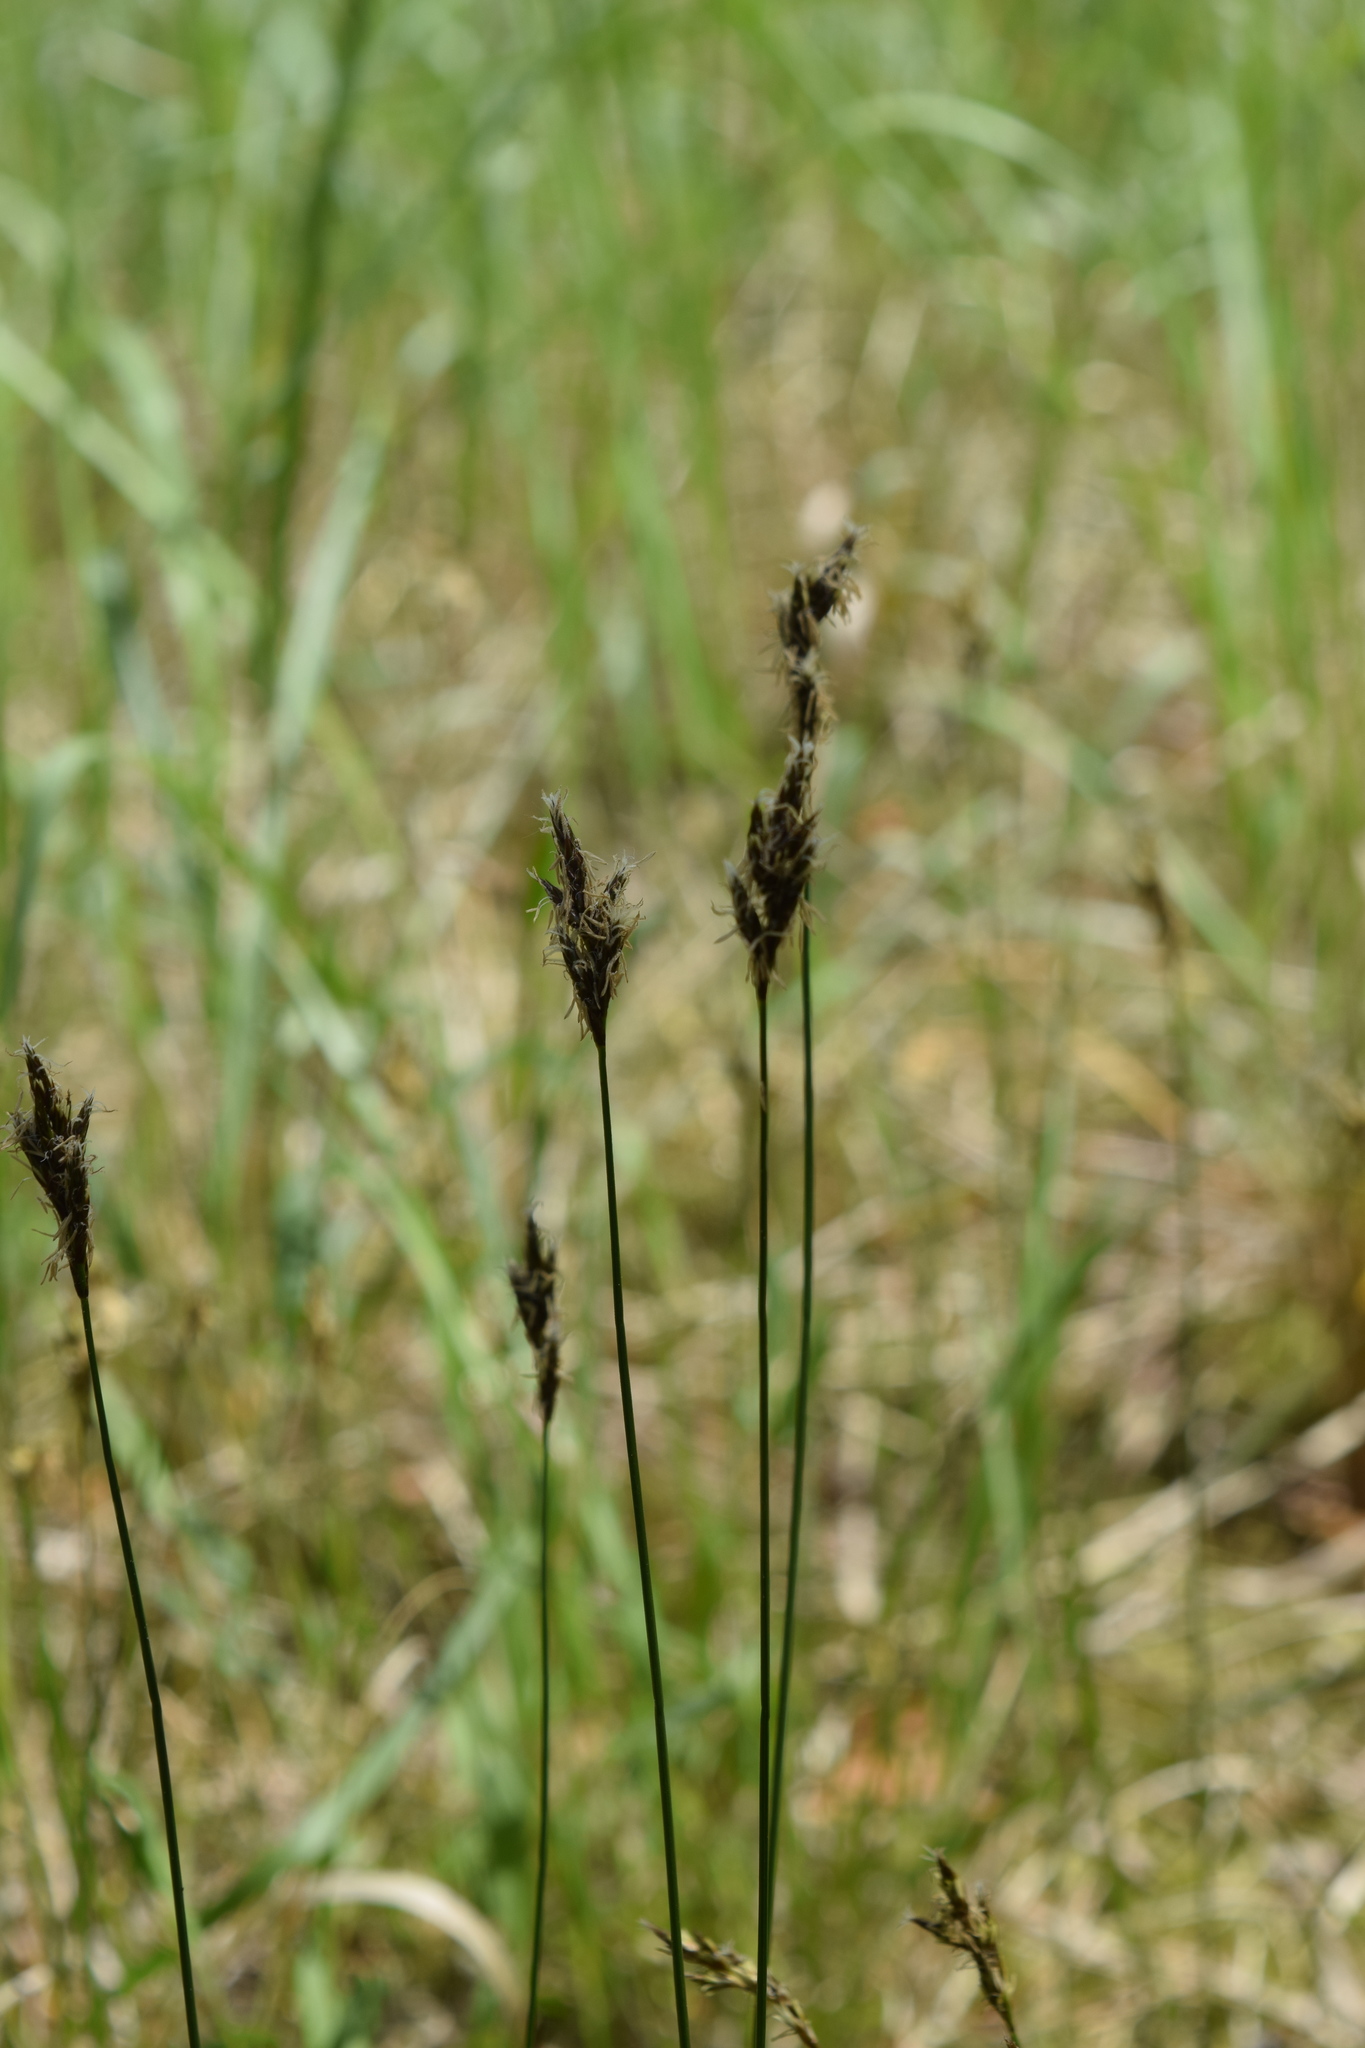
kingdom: Plantae
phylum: Tracheophyta
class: Liliopsida
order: Poales
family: Cyperaceae
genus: Carex
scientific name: Carex praecox
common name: Early sedge
